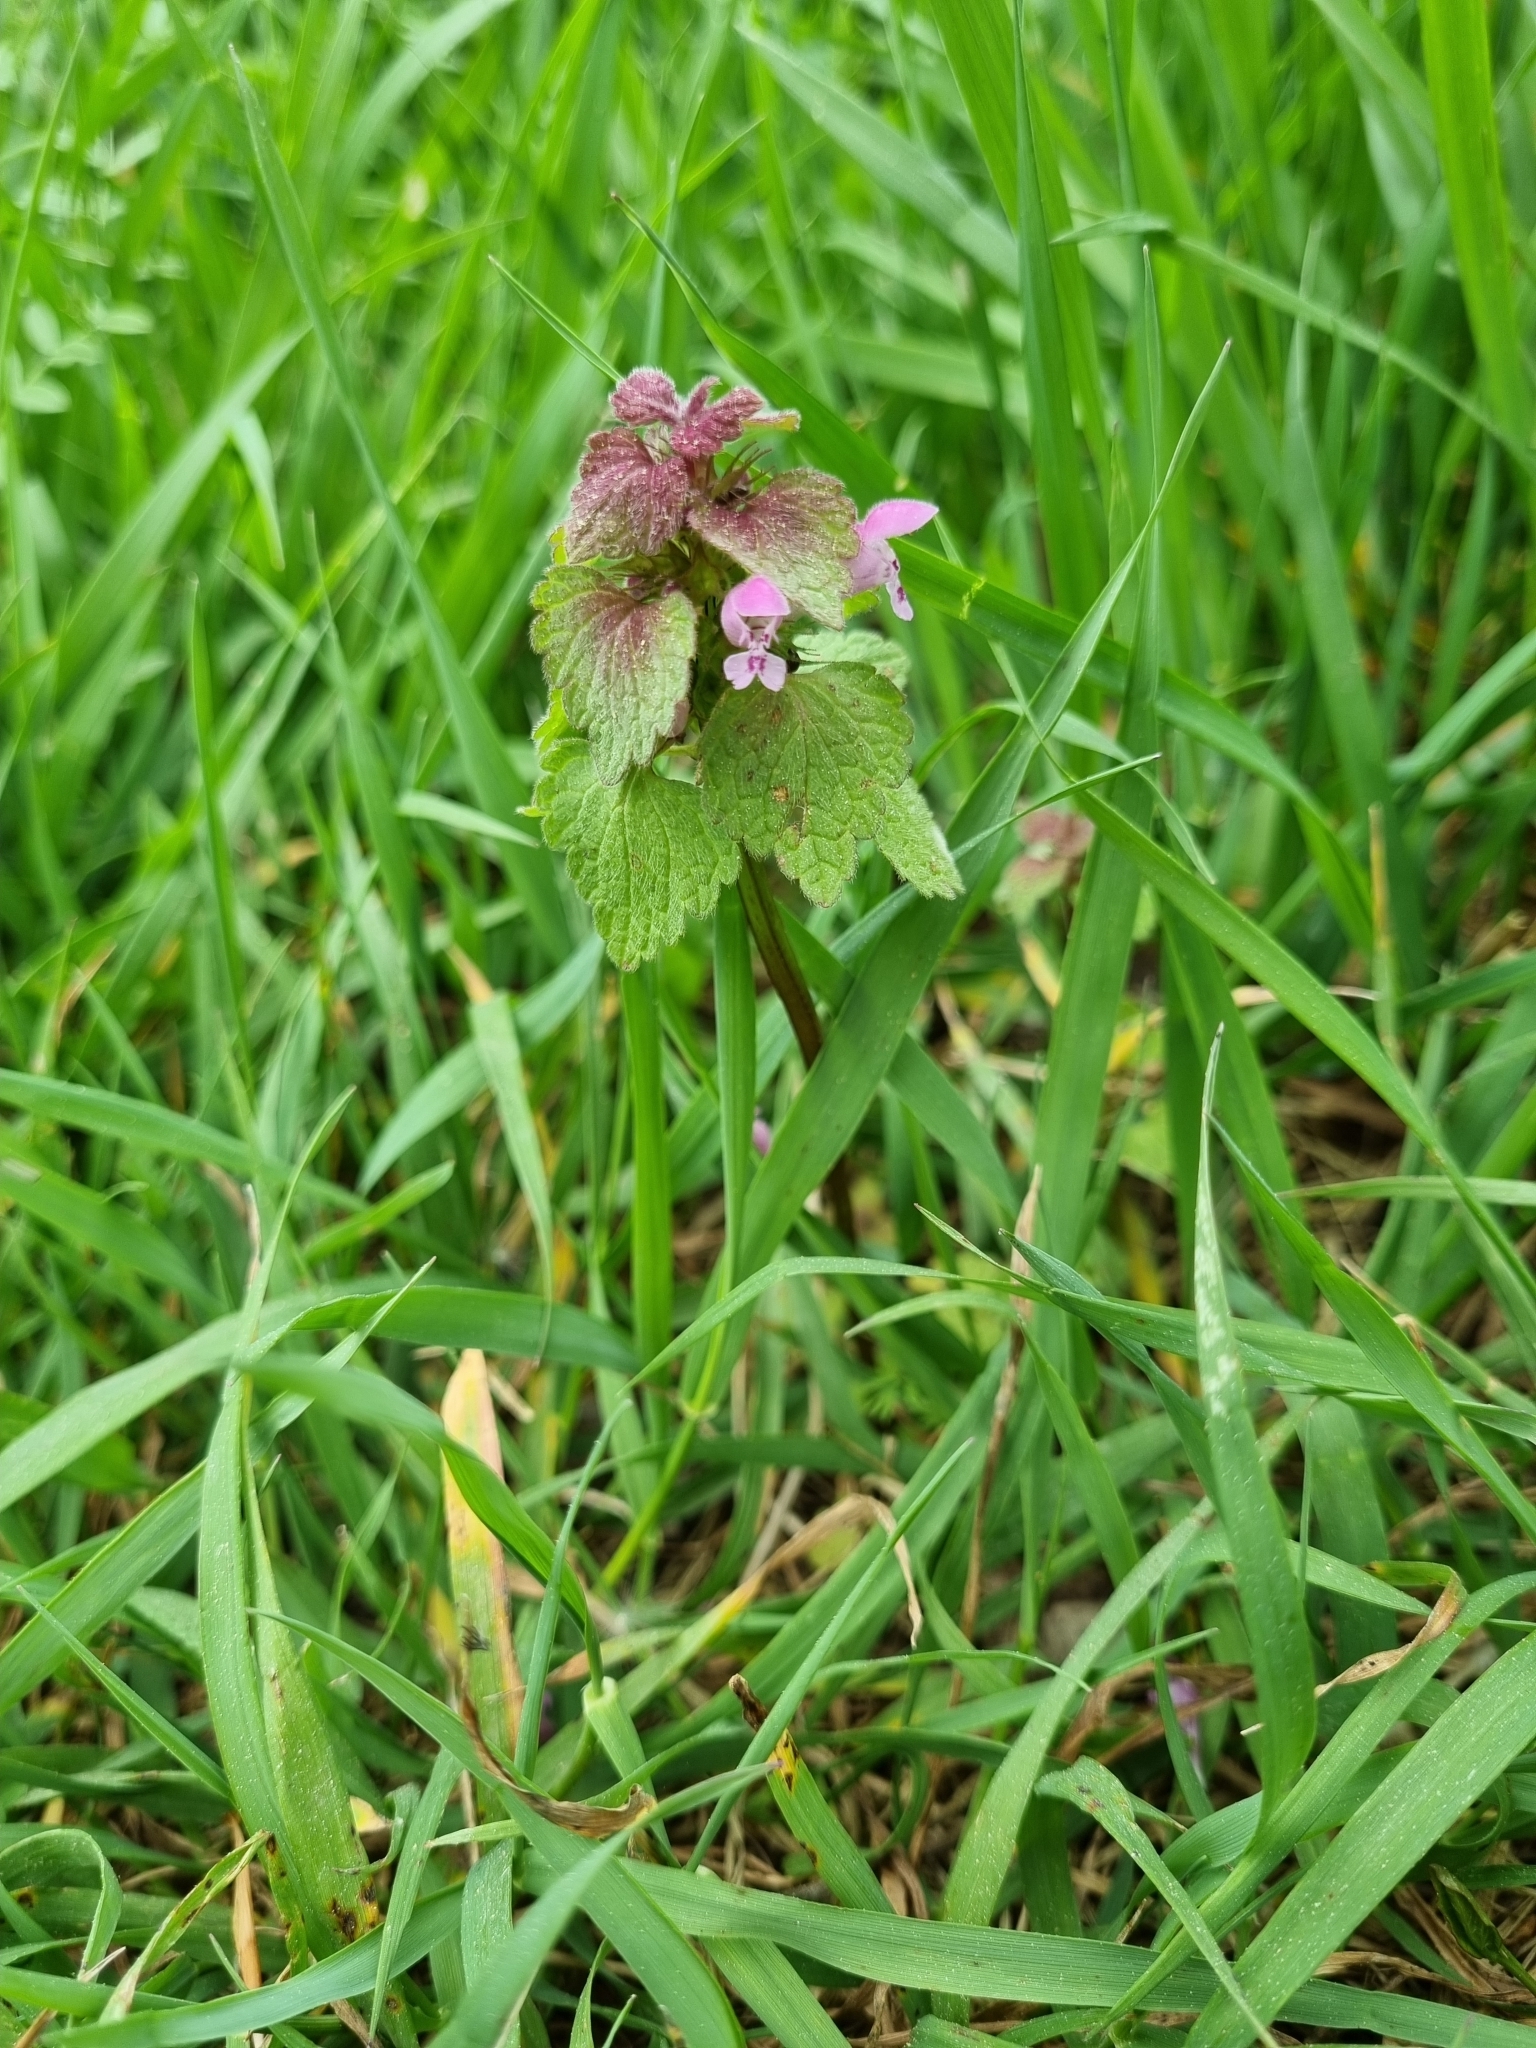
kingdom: Plantae
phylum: Tracheophyta
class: Magnoliopsida
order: Lamiales
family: Lamiaceae
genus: Lamium
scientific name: Lamium purpureum
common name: Red dead-nettle
